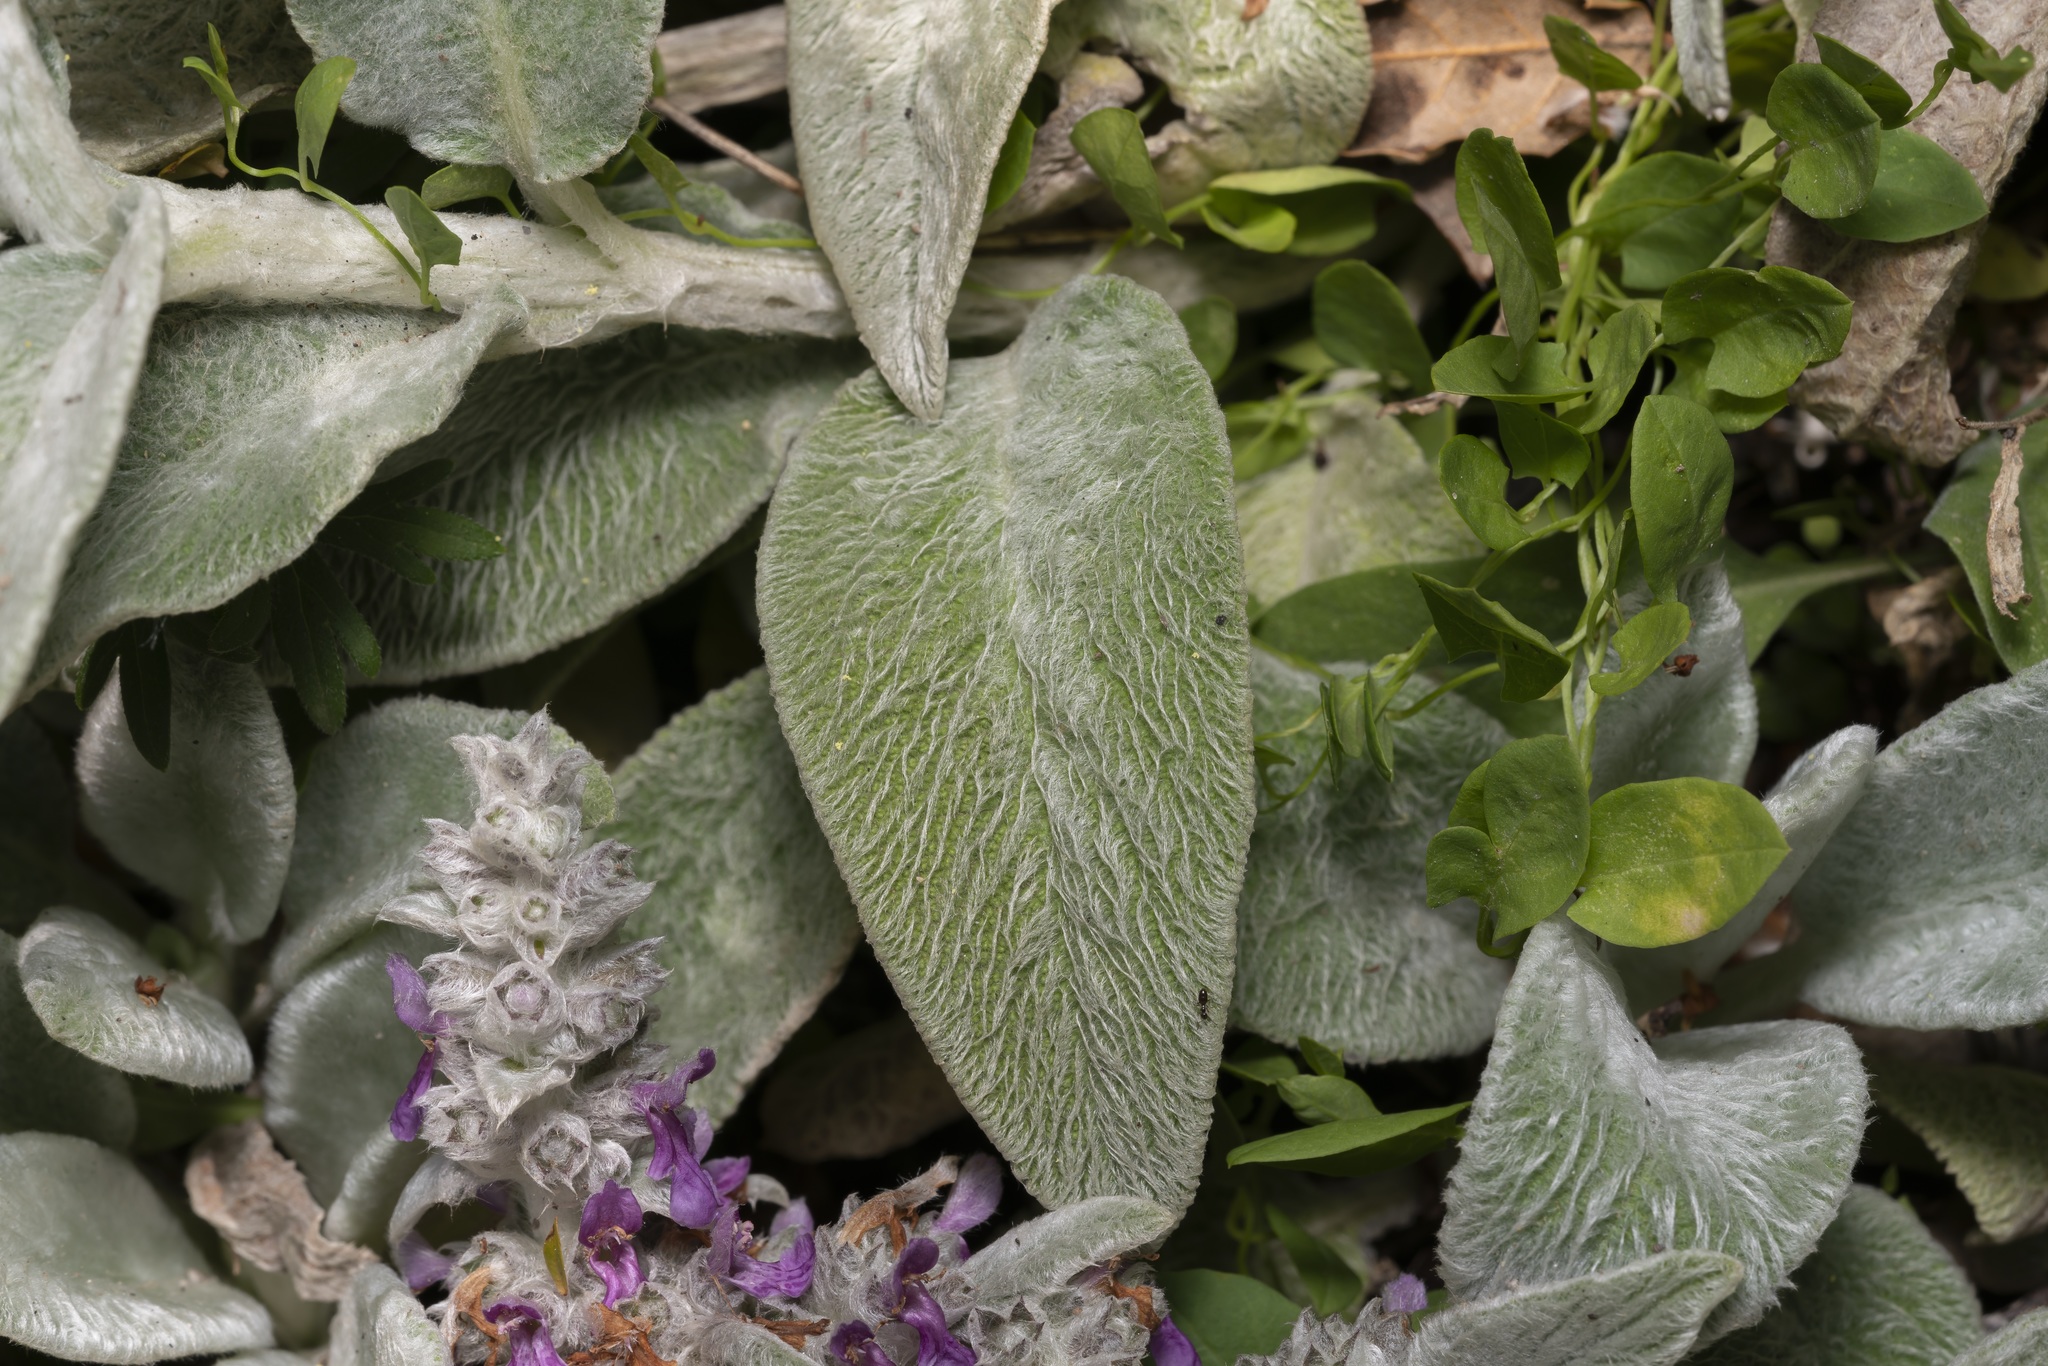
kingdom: Plantae
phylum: Tracheophyta
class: Magnoliopsida
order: Lamiales
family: Lamiaceae
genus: Stachys
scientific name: Stachys byzantina
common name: Lamb's-ear
